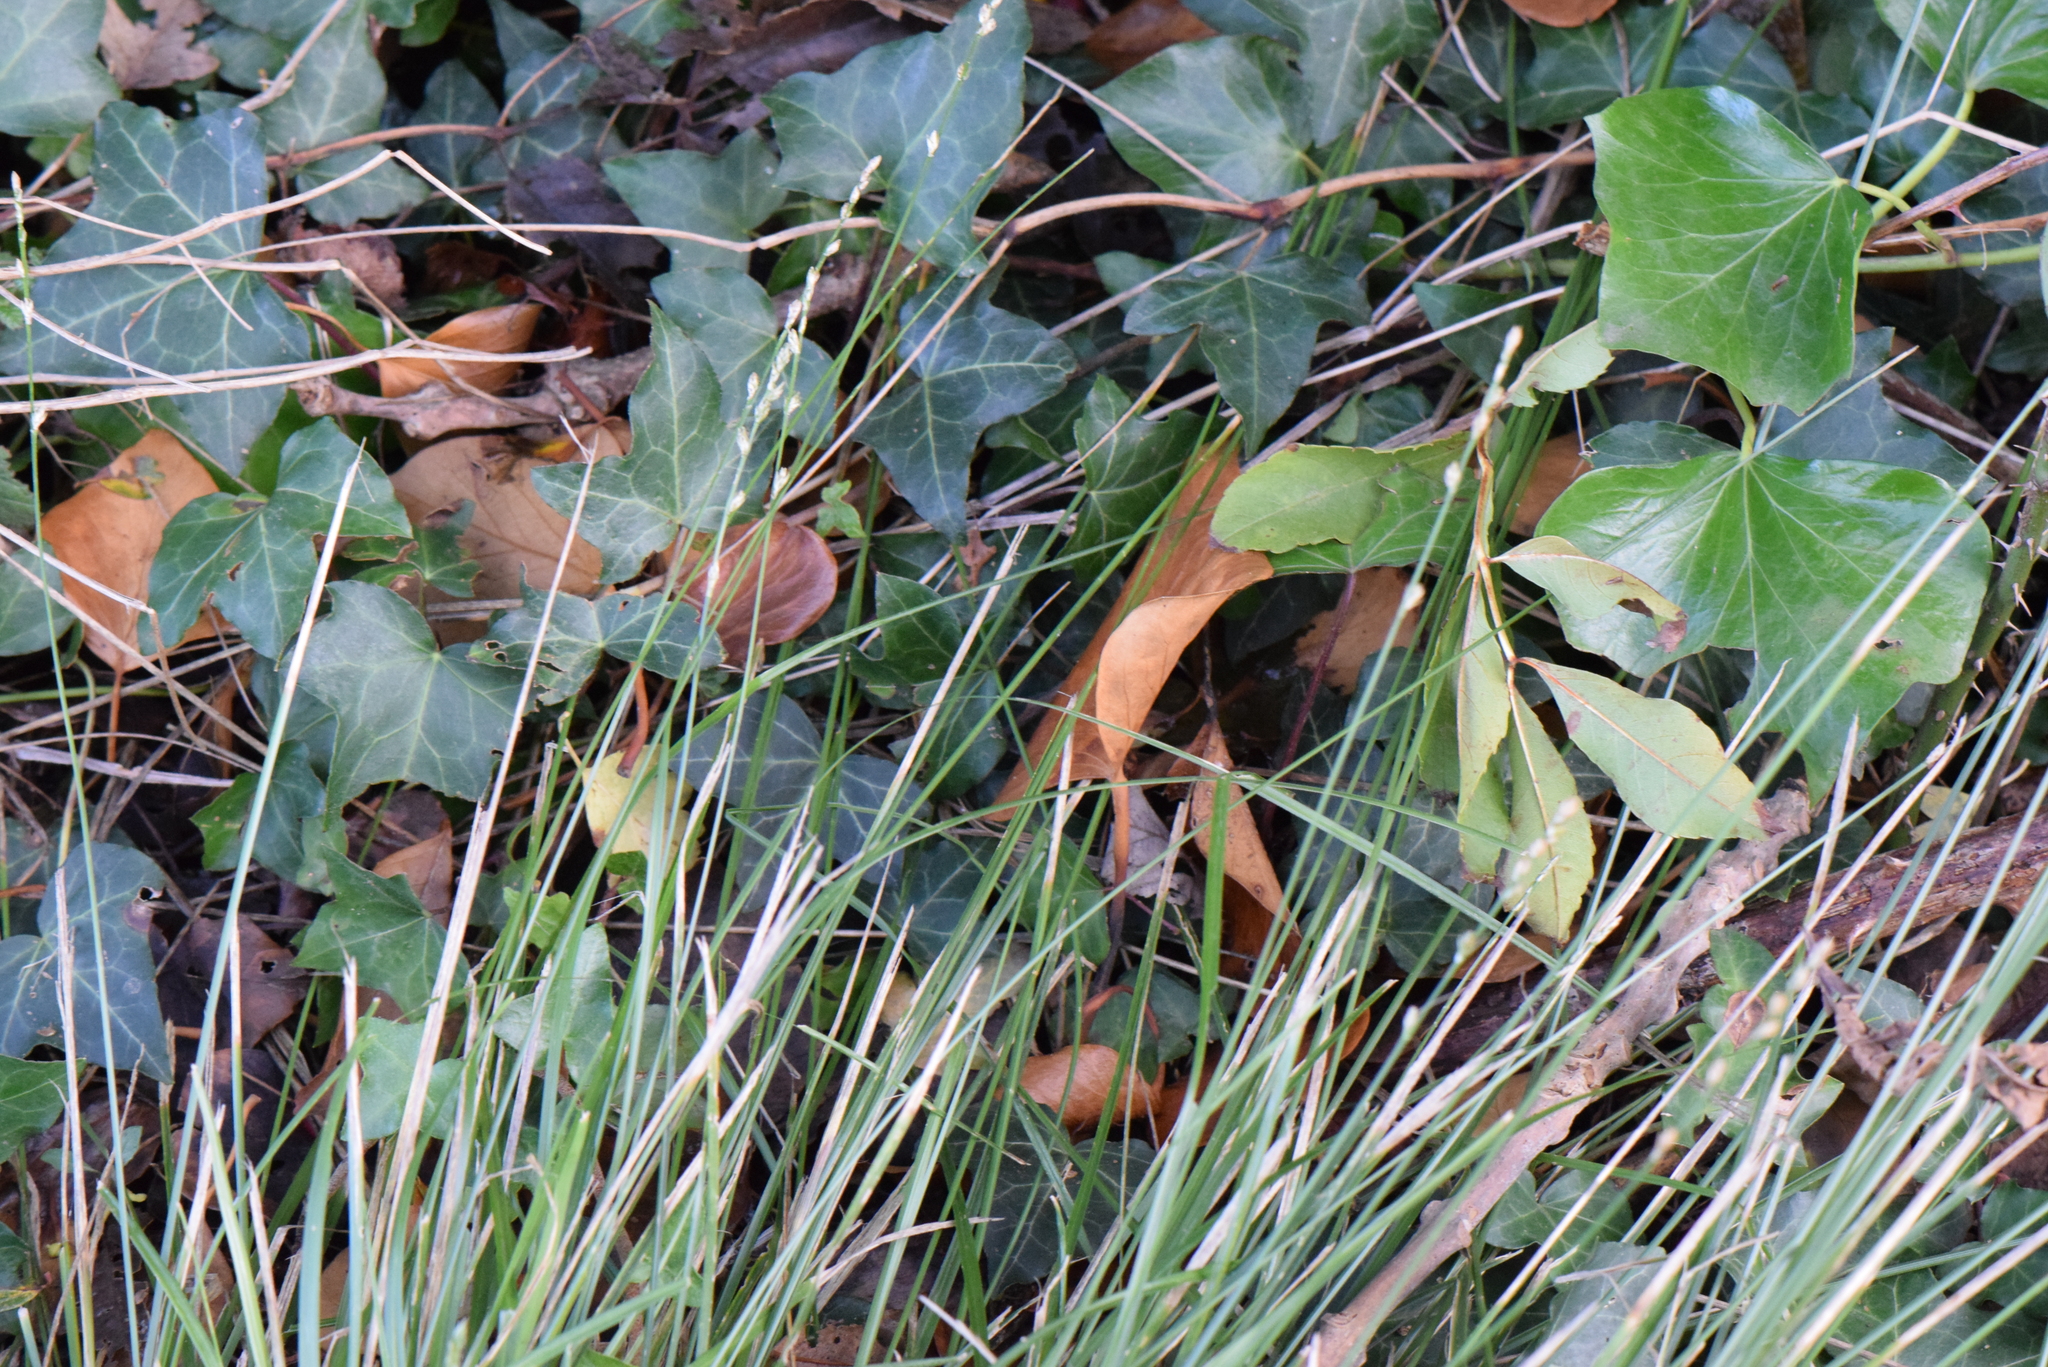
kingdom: Plantae
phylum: Tracheophyta
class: Liliopsida
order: Poales
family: Cyperaceae
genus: Carex
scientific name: Carex divulsa
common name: Grassland sedge
